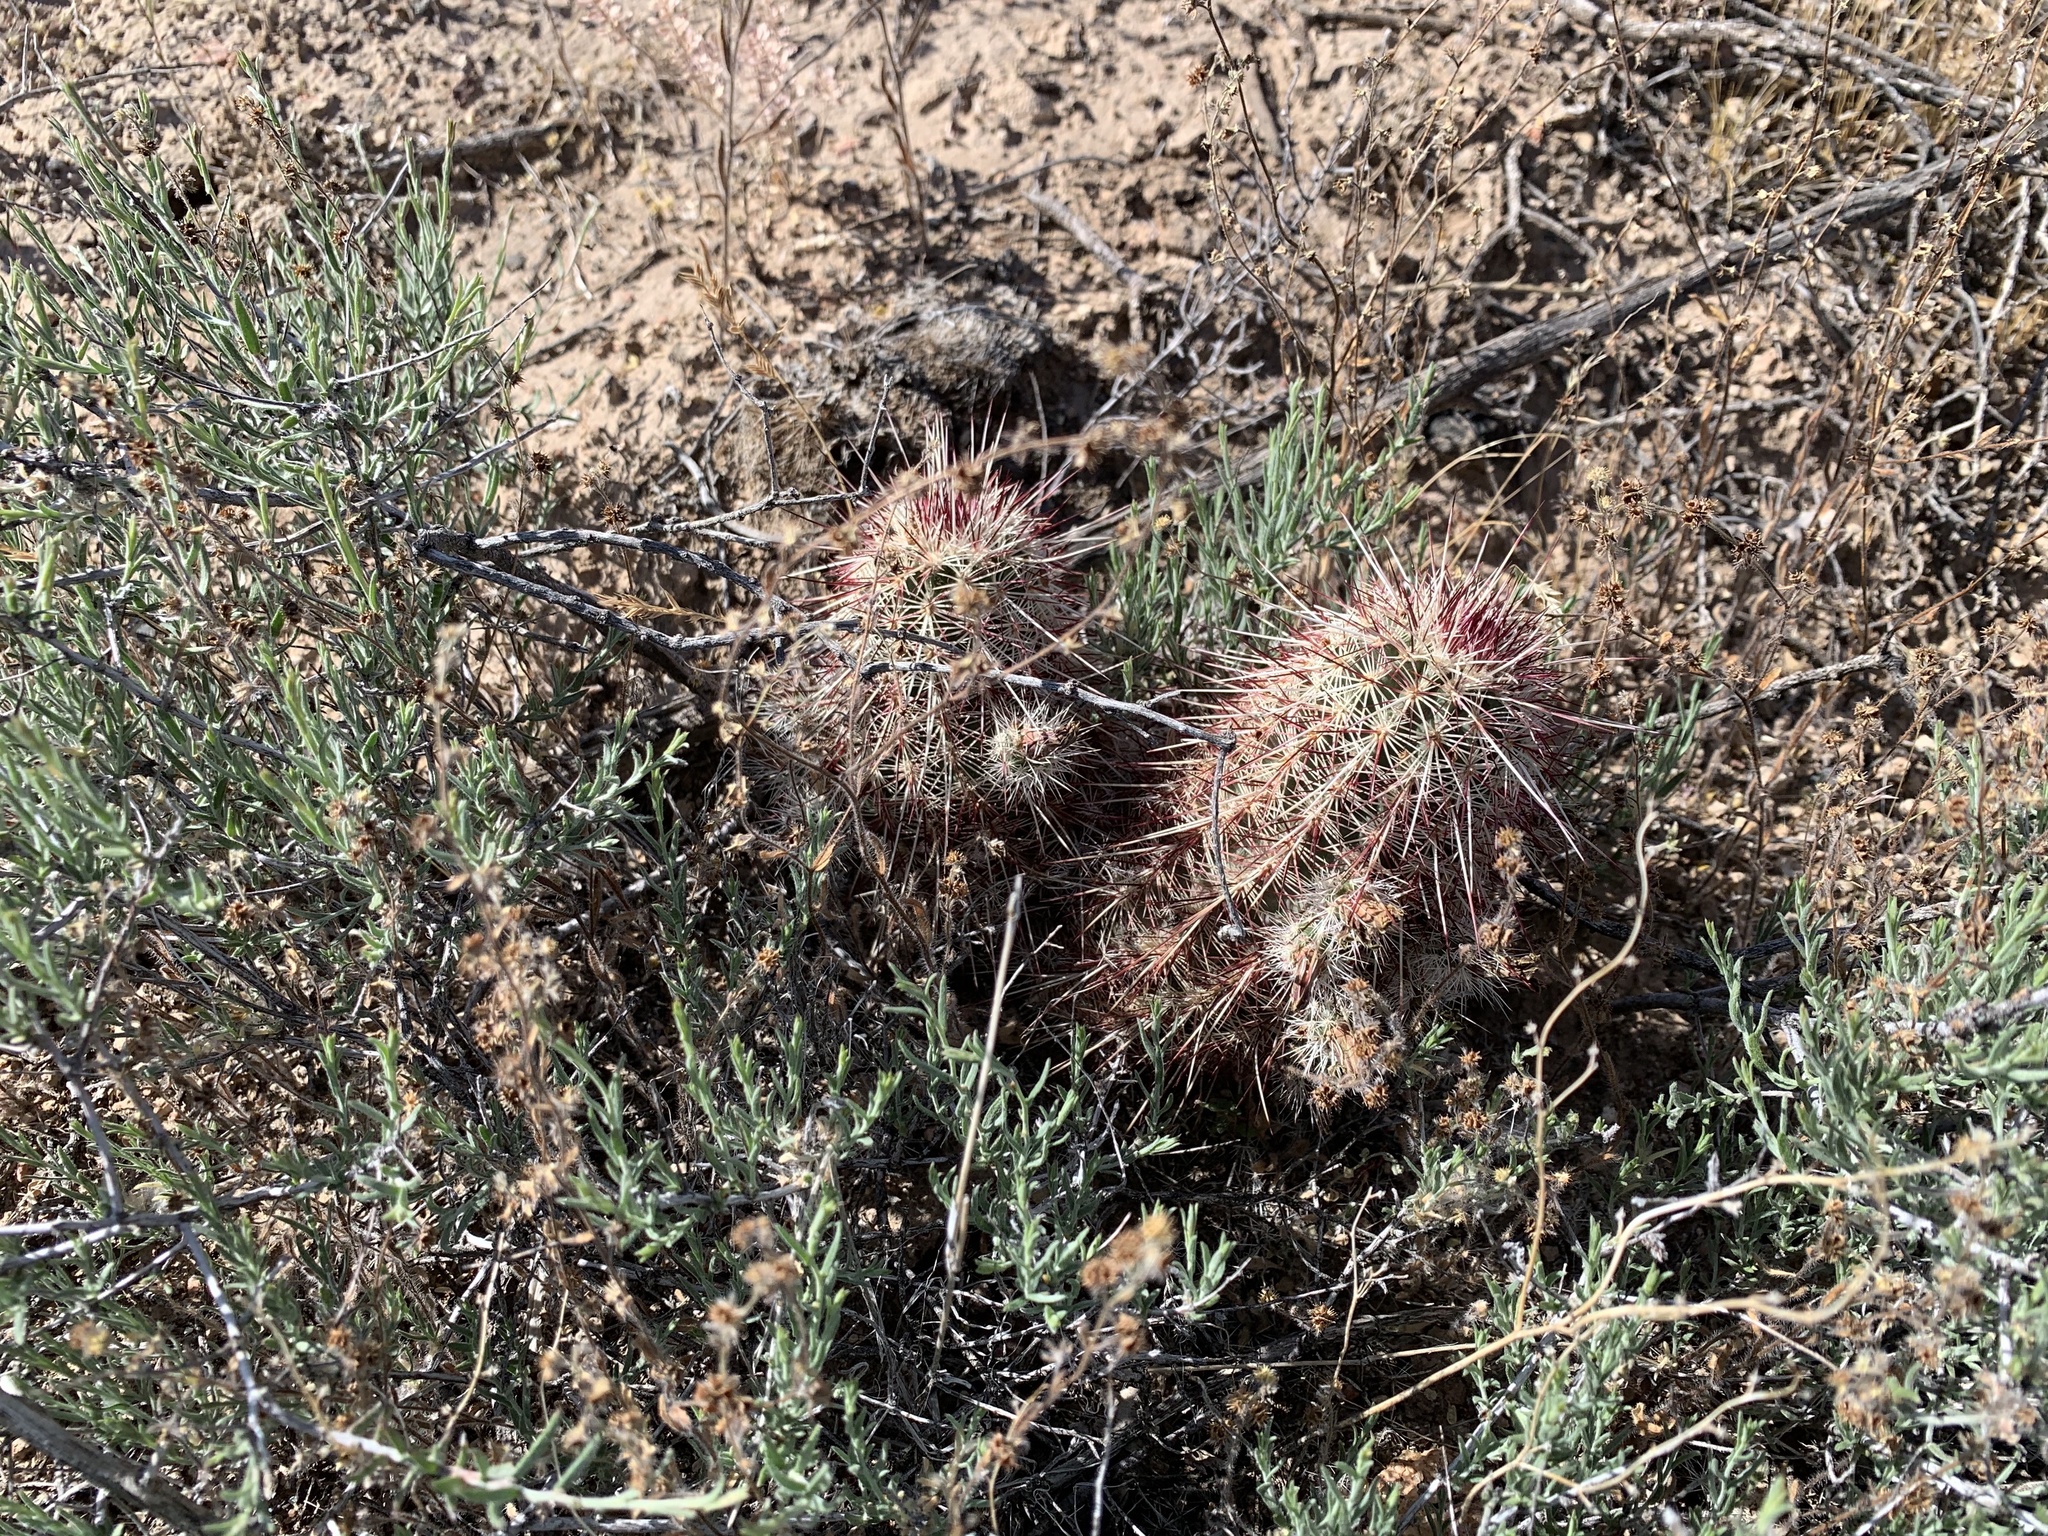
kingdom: Plantae
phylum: Tracheophyta
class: Magnoliopsida
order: Caryophyllales
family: Cactaceae
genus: Echinocereus
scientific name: Echinocereus viridiflorus
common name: Nylon hedgehog cactus
